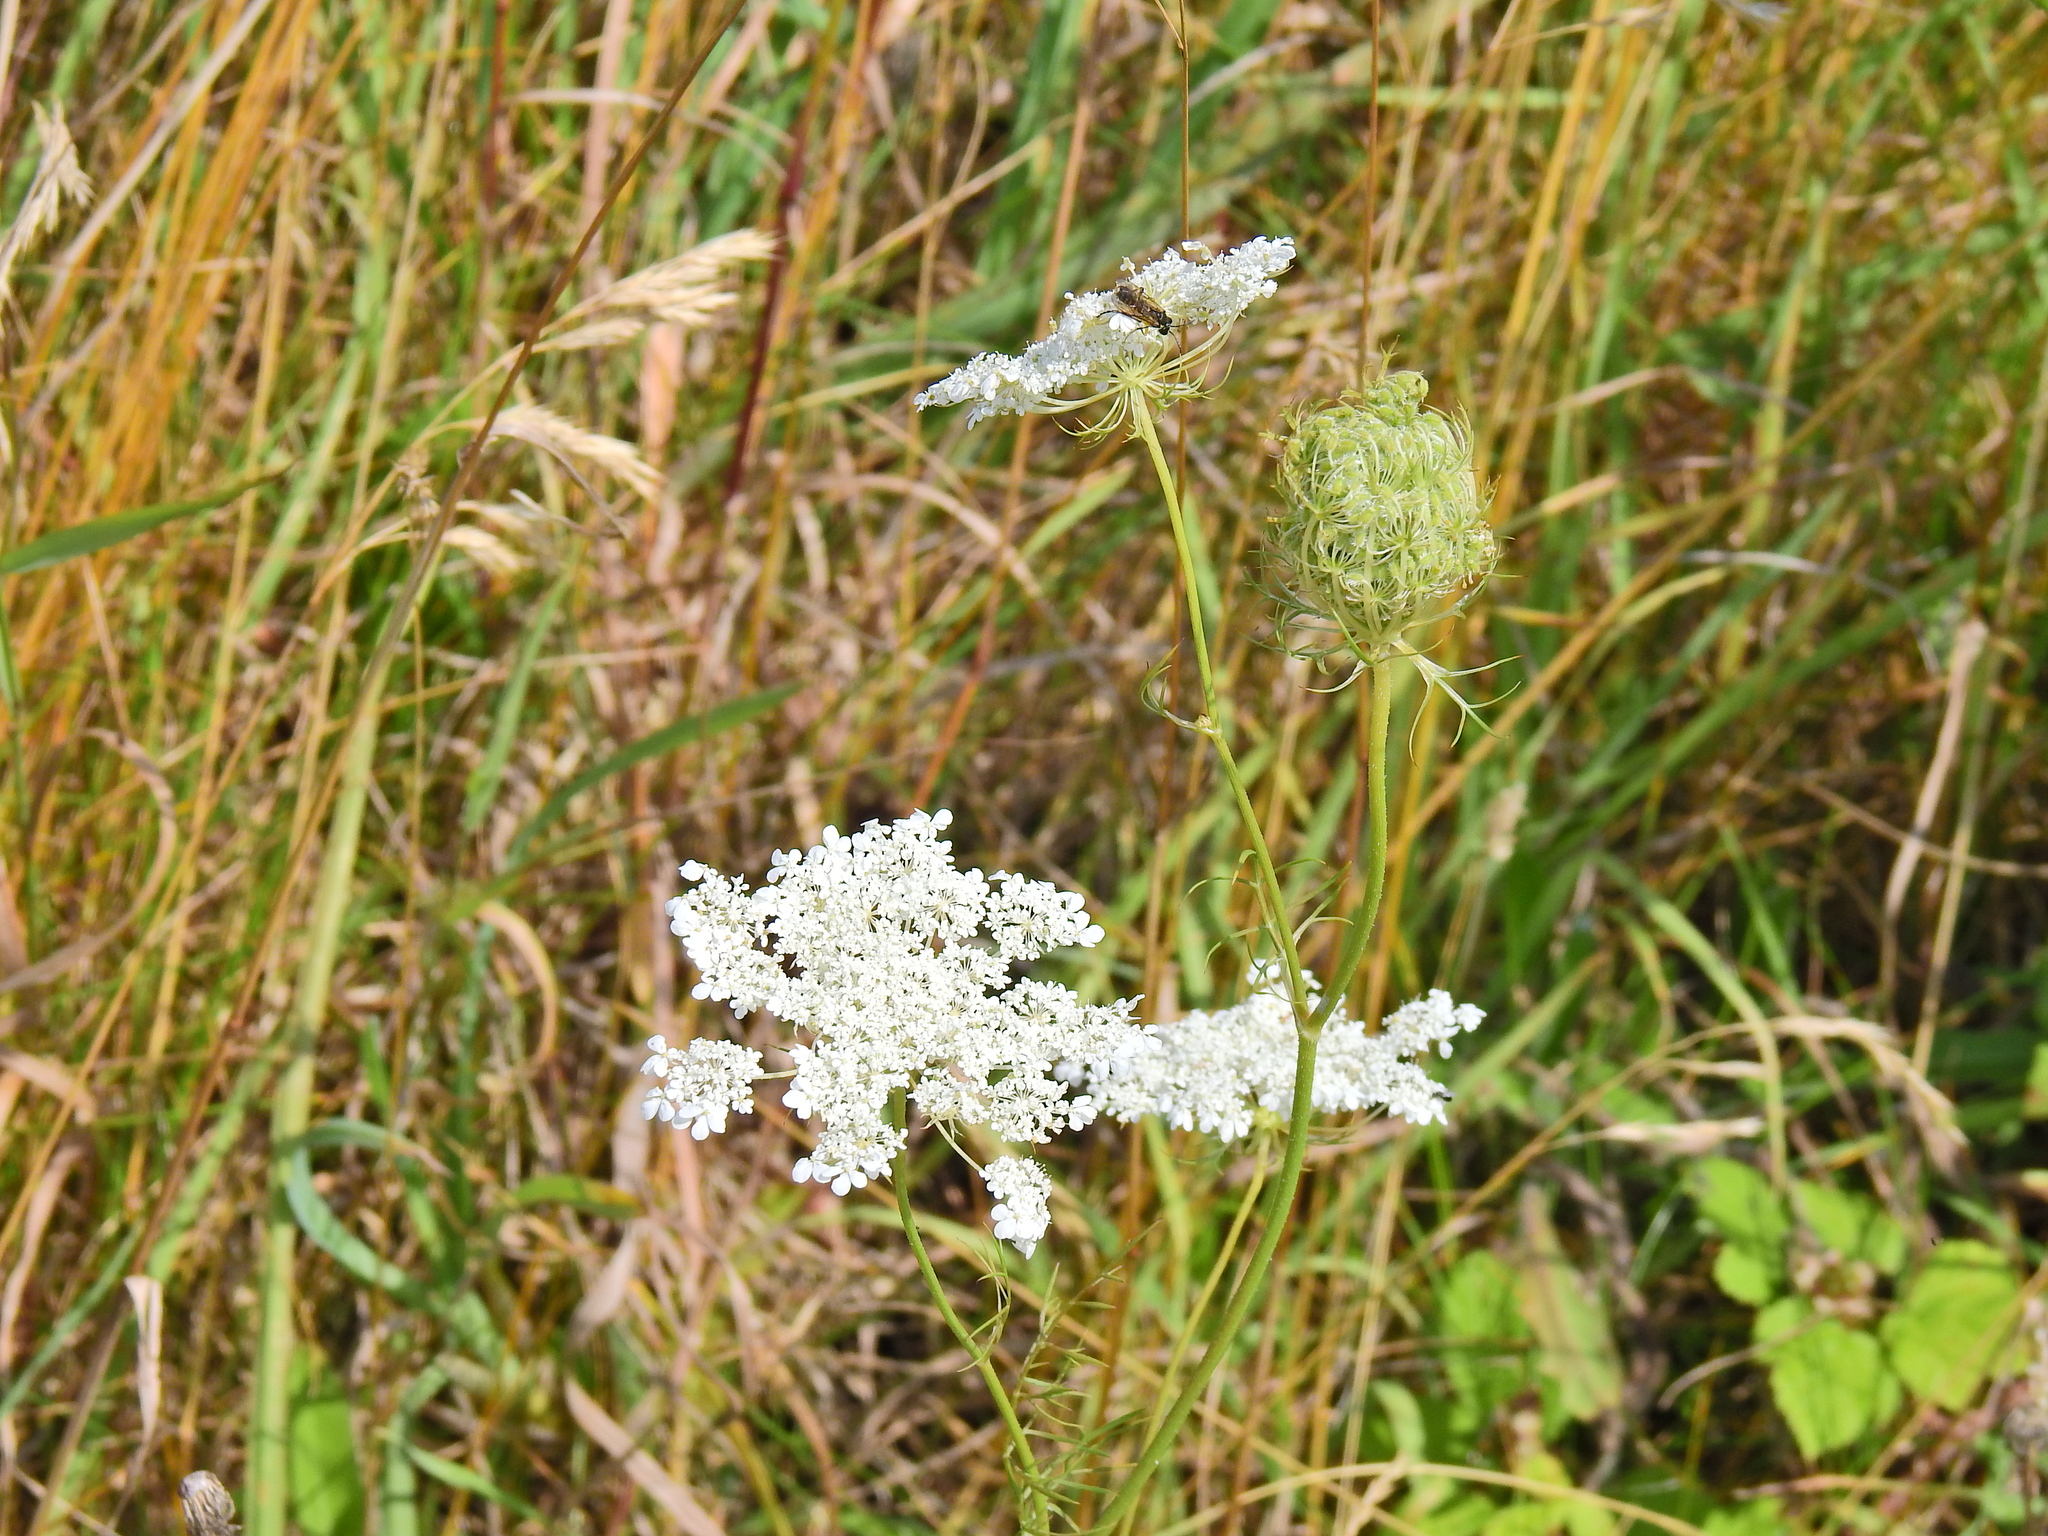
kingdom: Plantae
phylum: Tracheophyta
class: Magnoliopsida
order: Apiales
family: Apiaceae
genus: Daucus
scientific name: Daucus carota
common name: Wild carrot
